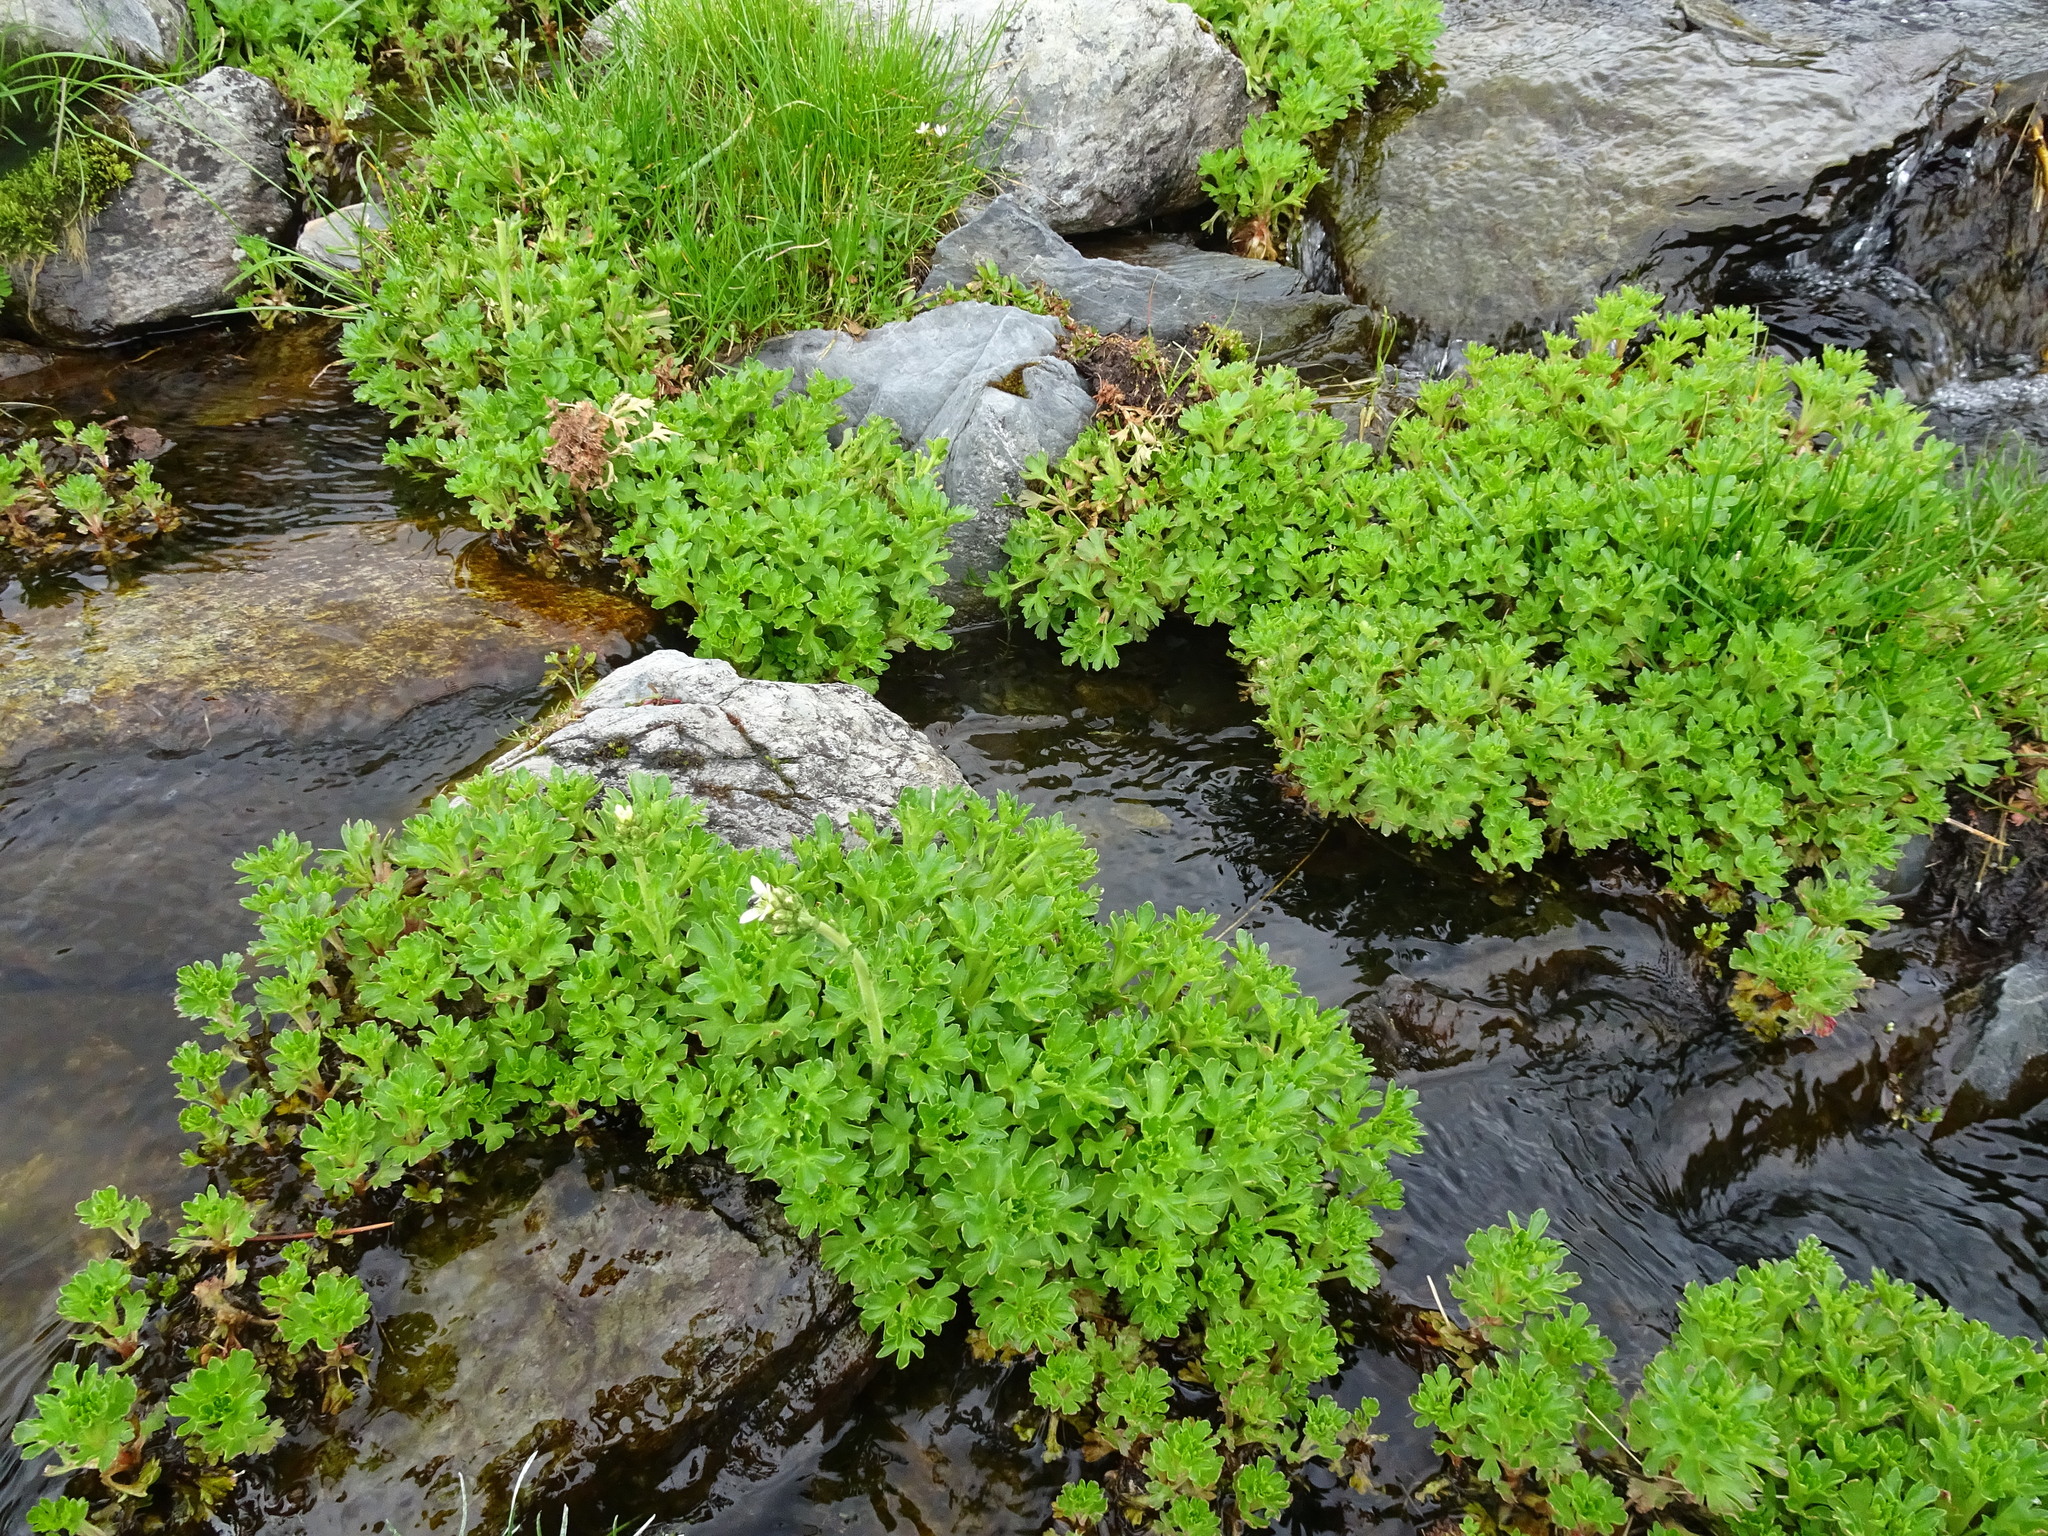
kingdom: Plantae
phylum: Tracheophyta
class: Magnoliopsida
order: Saxifragales
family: Saxifragaceae
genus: Saxifraga
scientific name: Saxifraga aquatica
